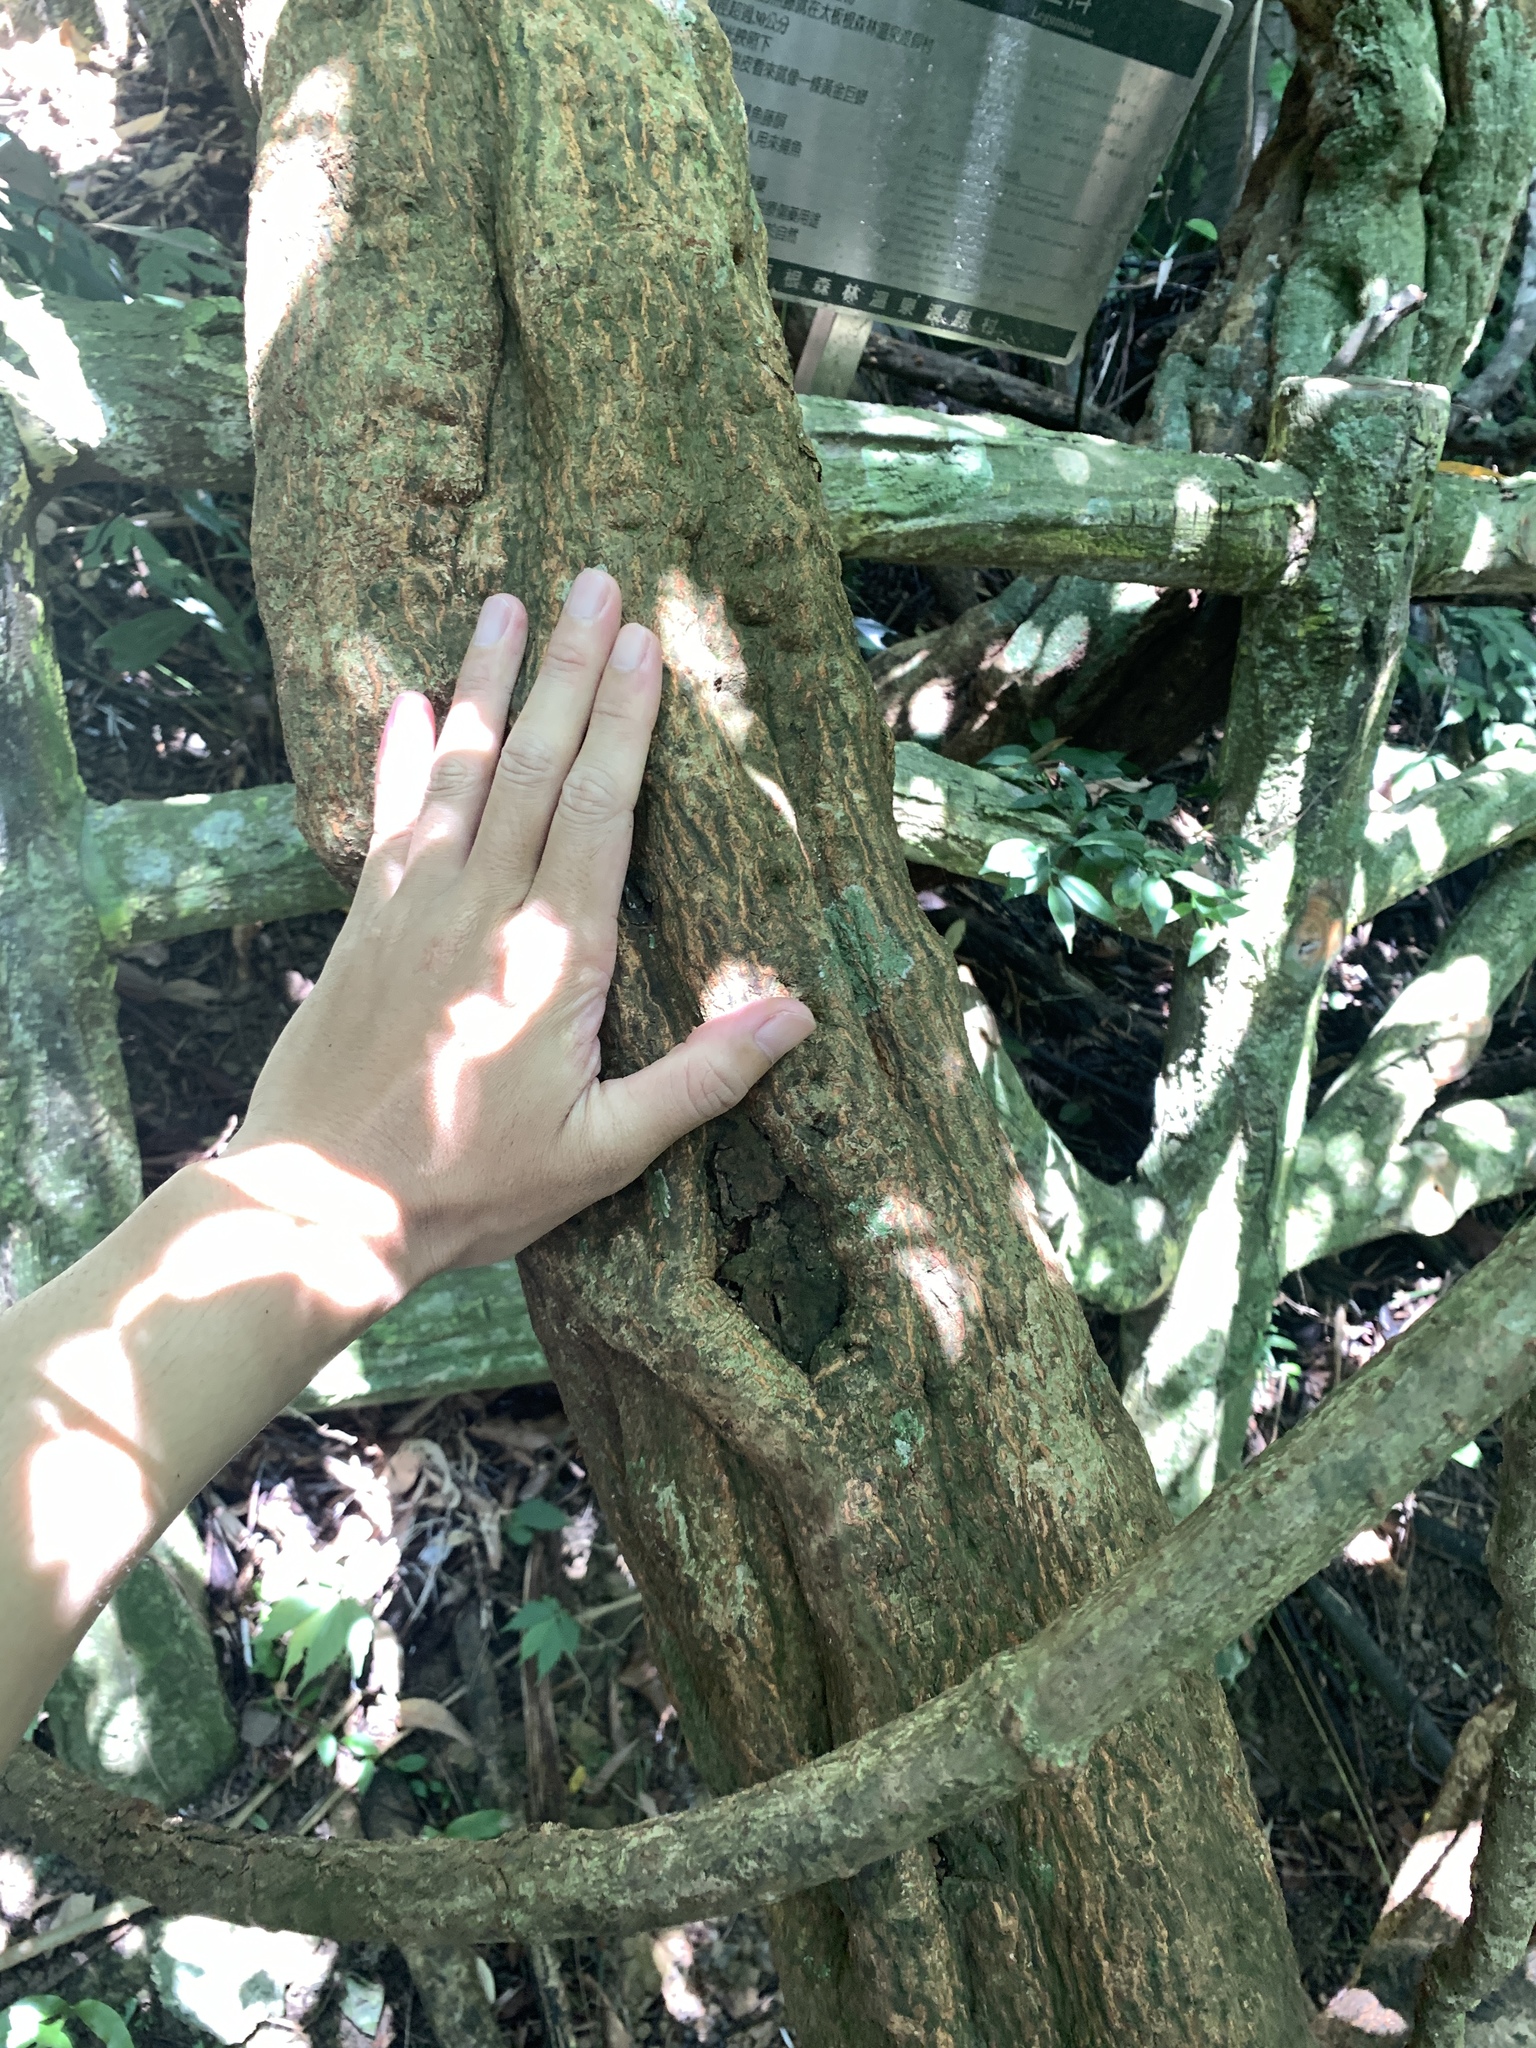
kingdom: Plantae
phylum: Tracheophyta
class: Magnoliopsida
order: Fabales
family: Fabaceae
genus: Millettia
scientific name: Millettia pachycarpa
